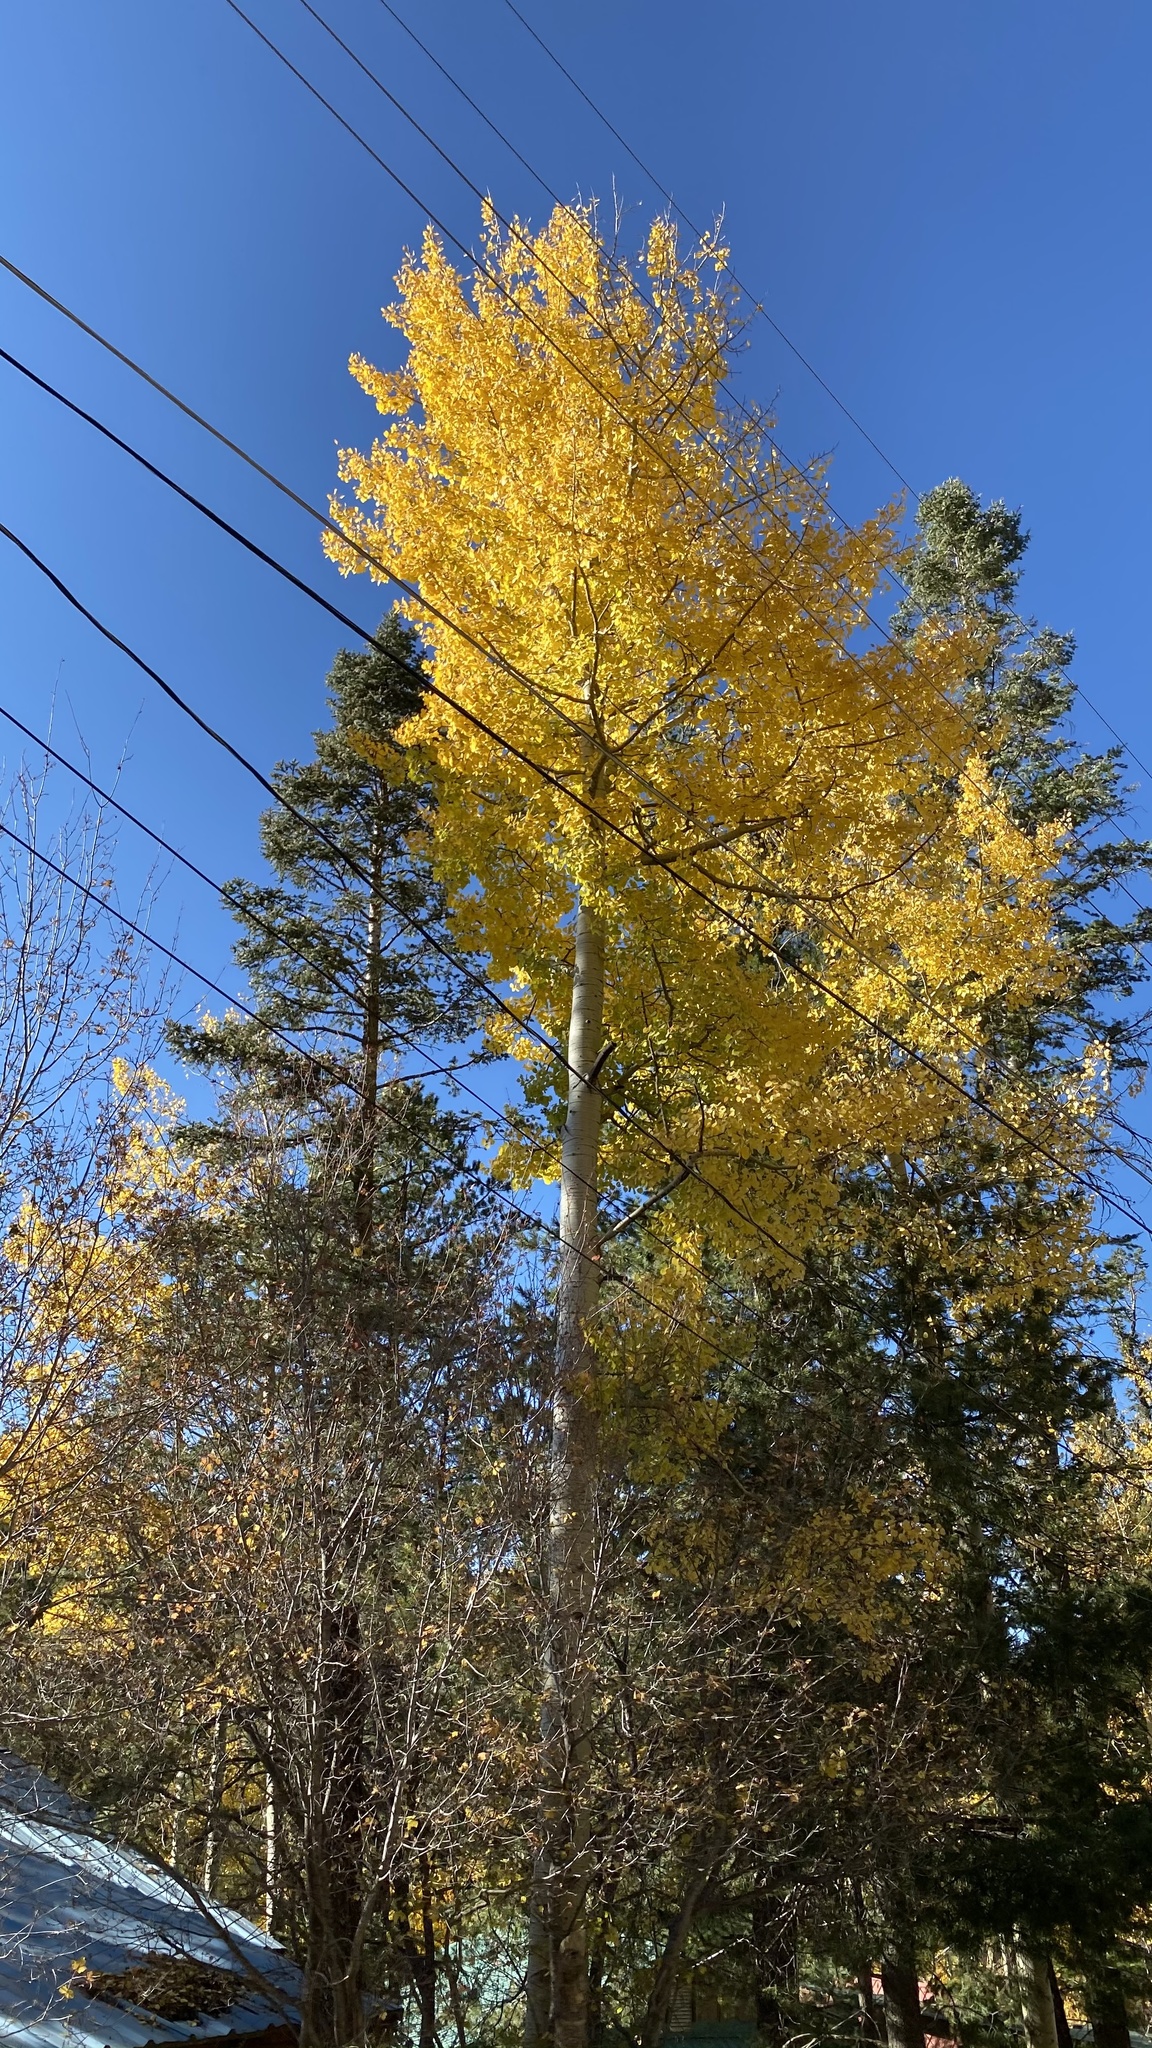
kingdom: Plantae
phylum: Tracheophyta
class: Magnoliopsida
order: Malpighiales
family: Salicaceae
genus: Populus
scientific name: Populus tremuloides
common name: Quaking aspen
